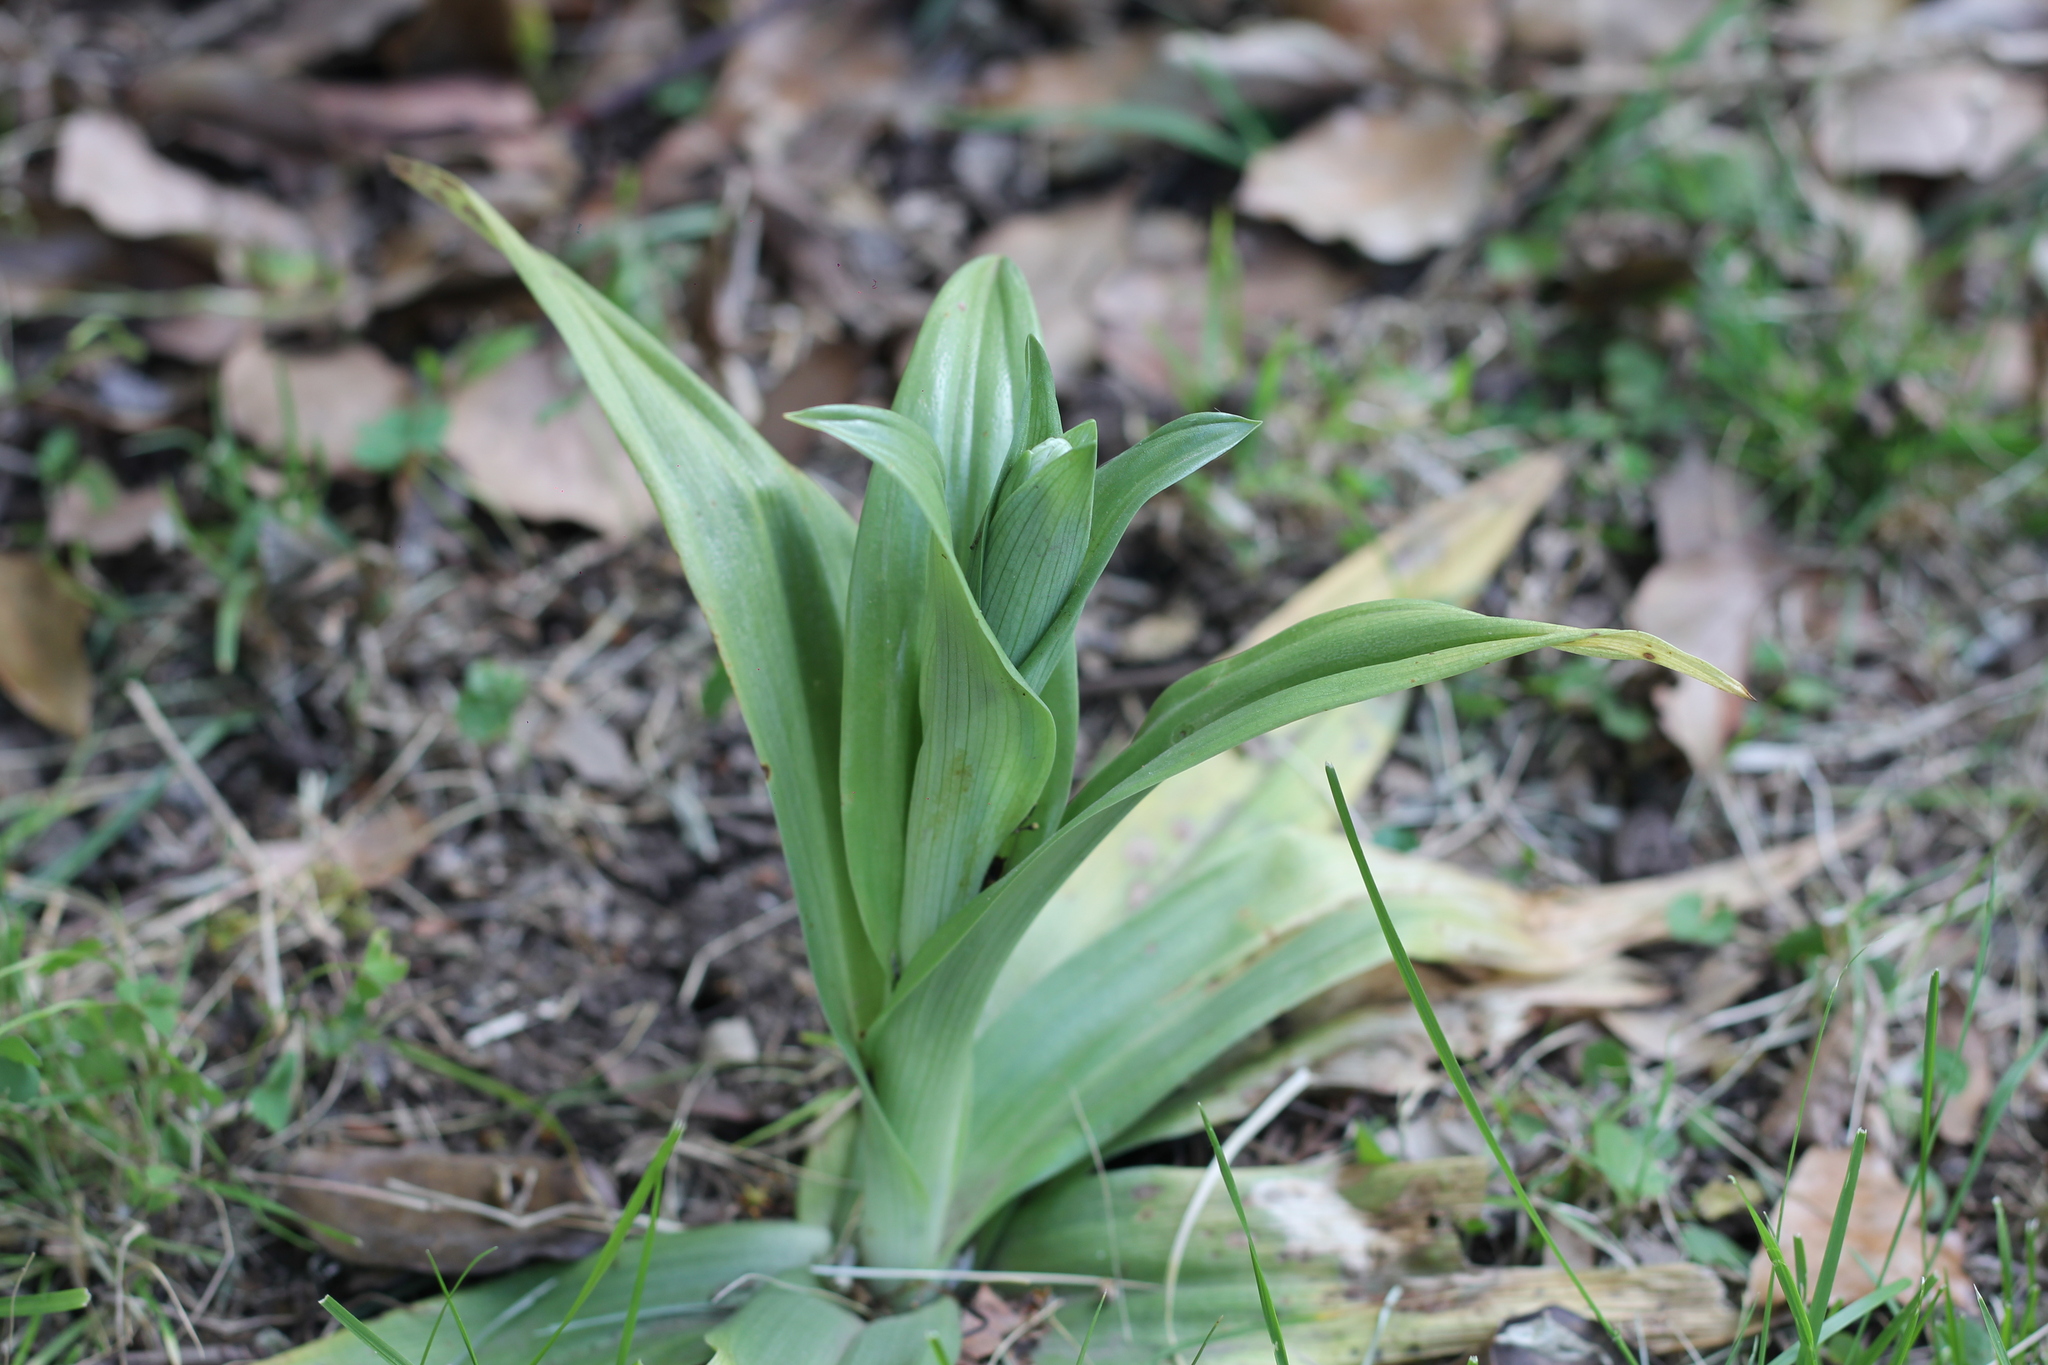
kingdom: Plantae
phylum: Tracheophyta
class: Liliopsida
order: Asparagales
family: Orchidaceae
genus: Chloraea
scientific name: Chloraea membranacea
